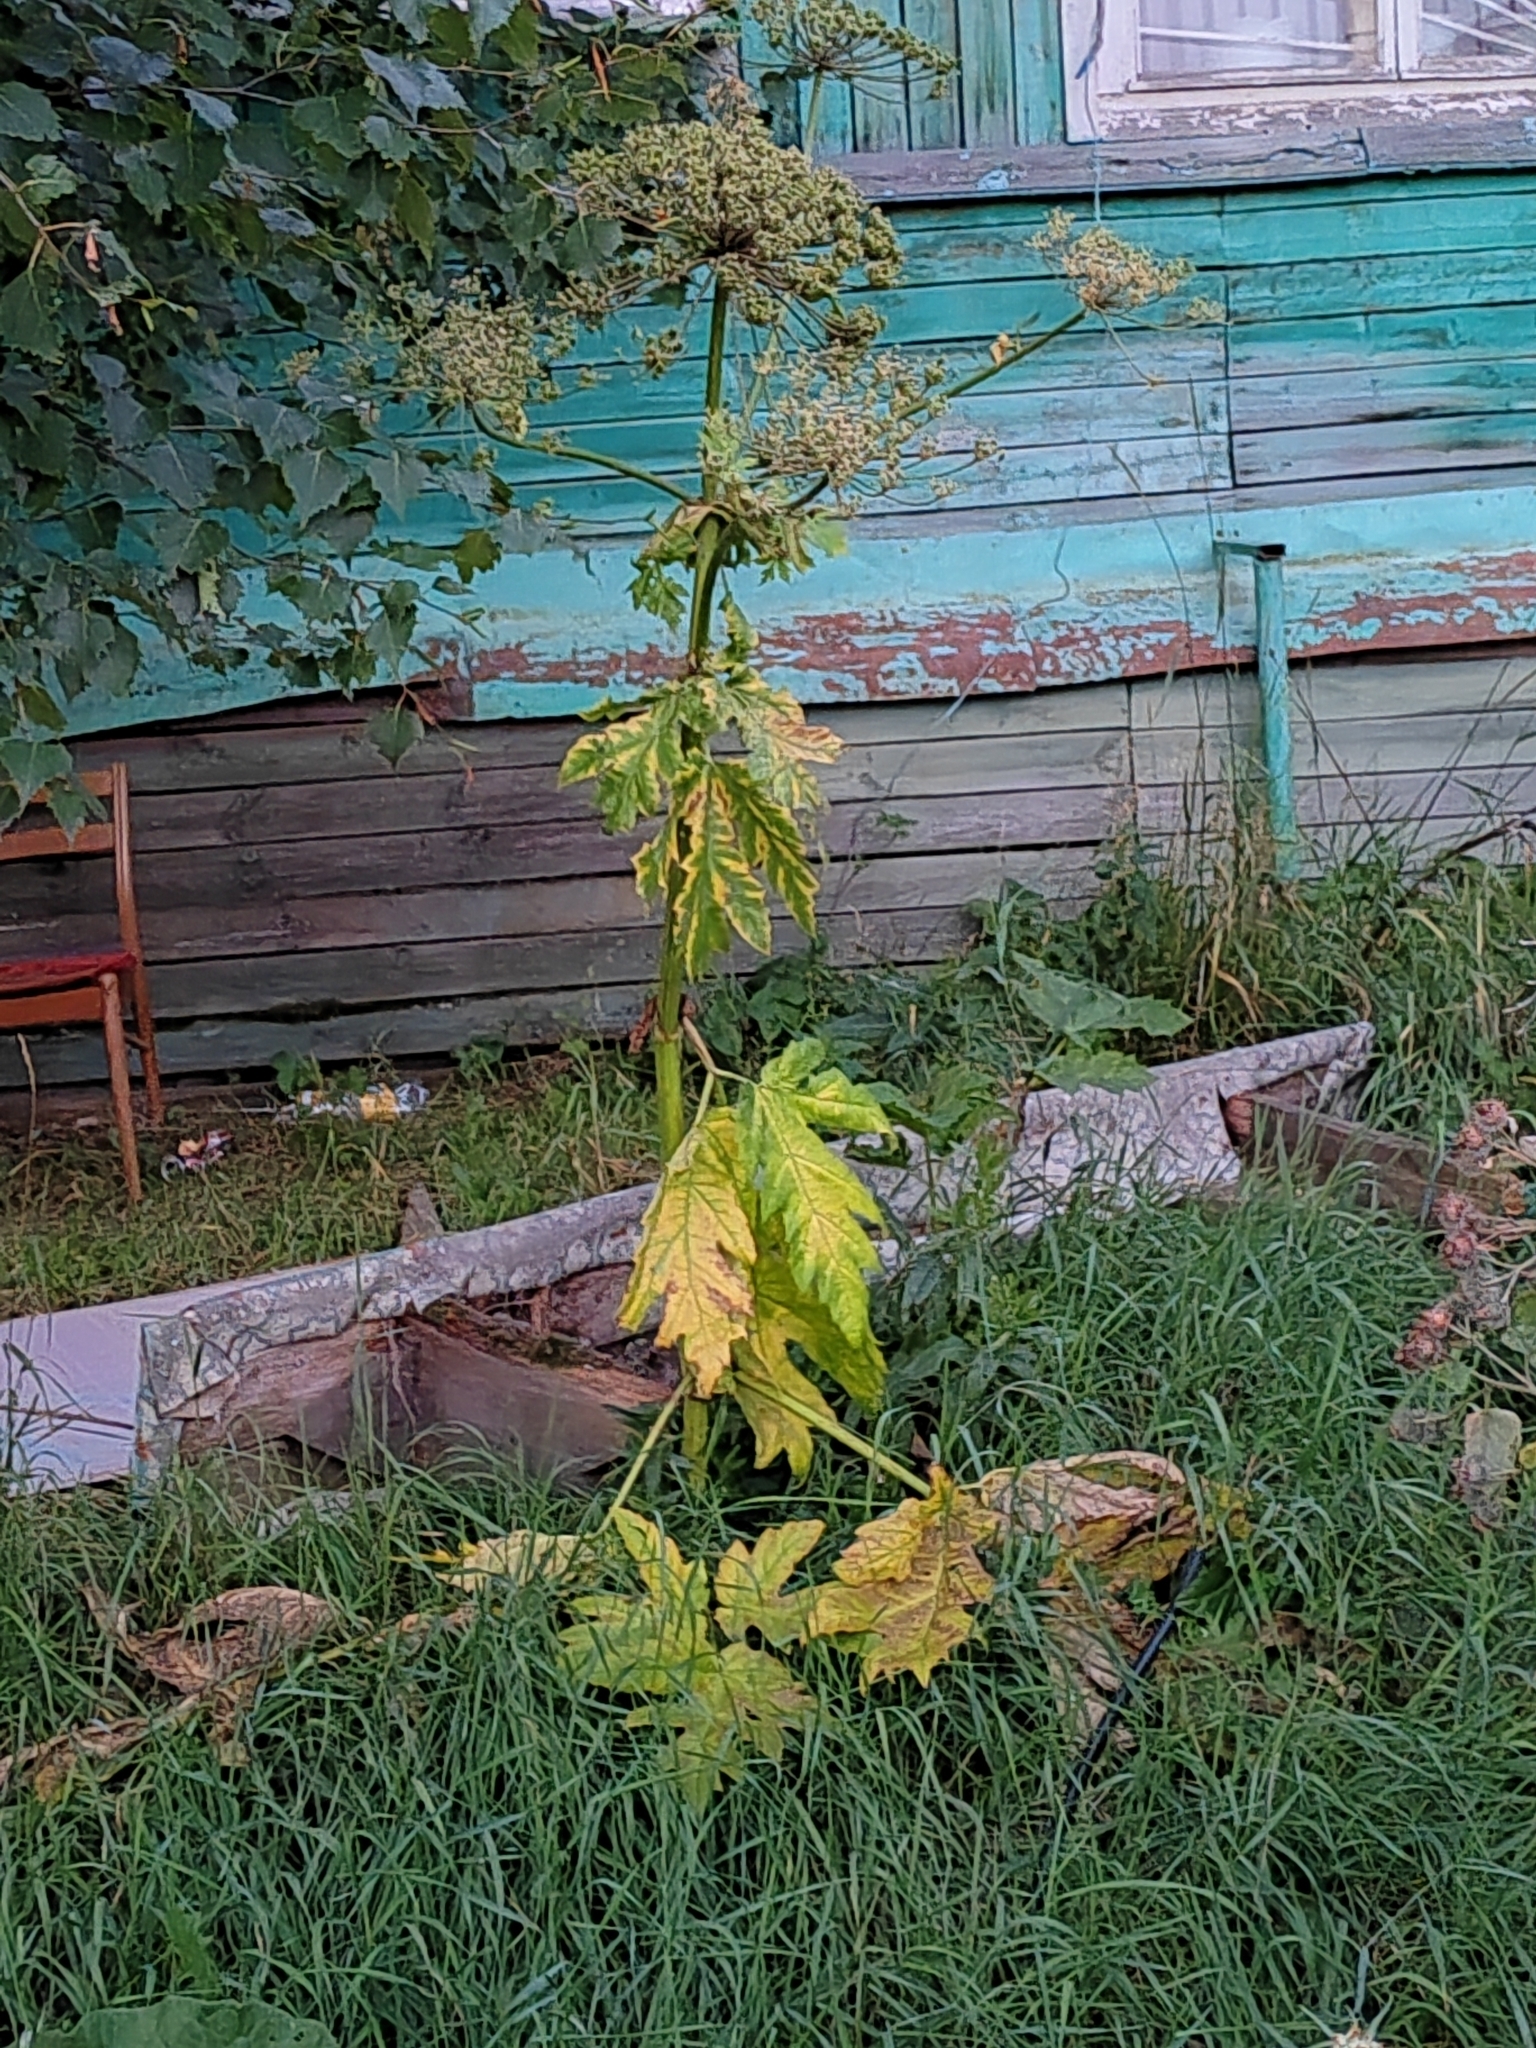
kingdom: Plantae
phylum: Tracheophyta
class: Magnoliopsida
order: Apiales
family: Apiaceae
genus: Heracleum
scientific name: Heracleum sosnowskyi
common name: Sosnowsky's hogweed
